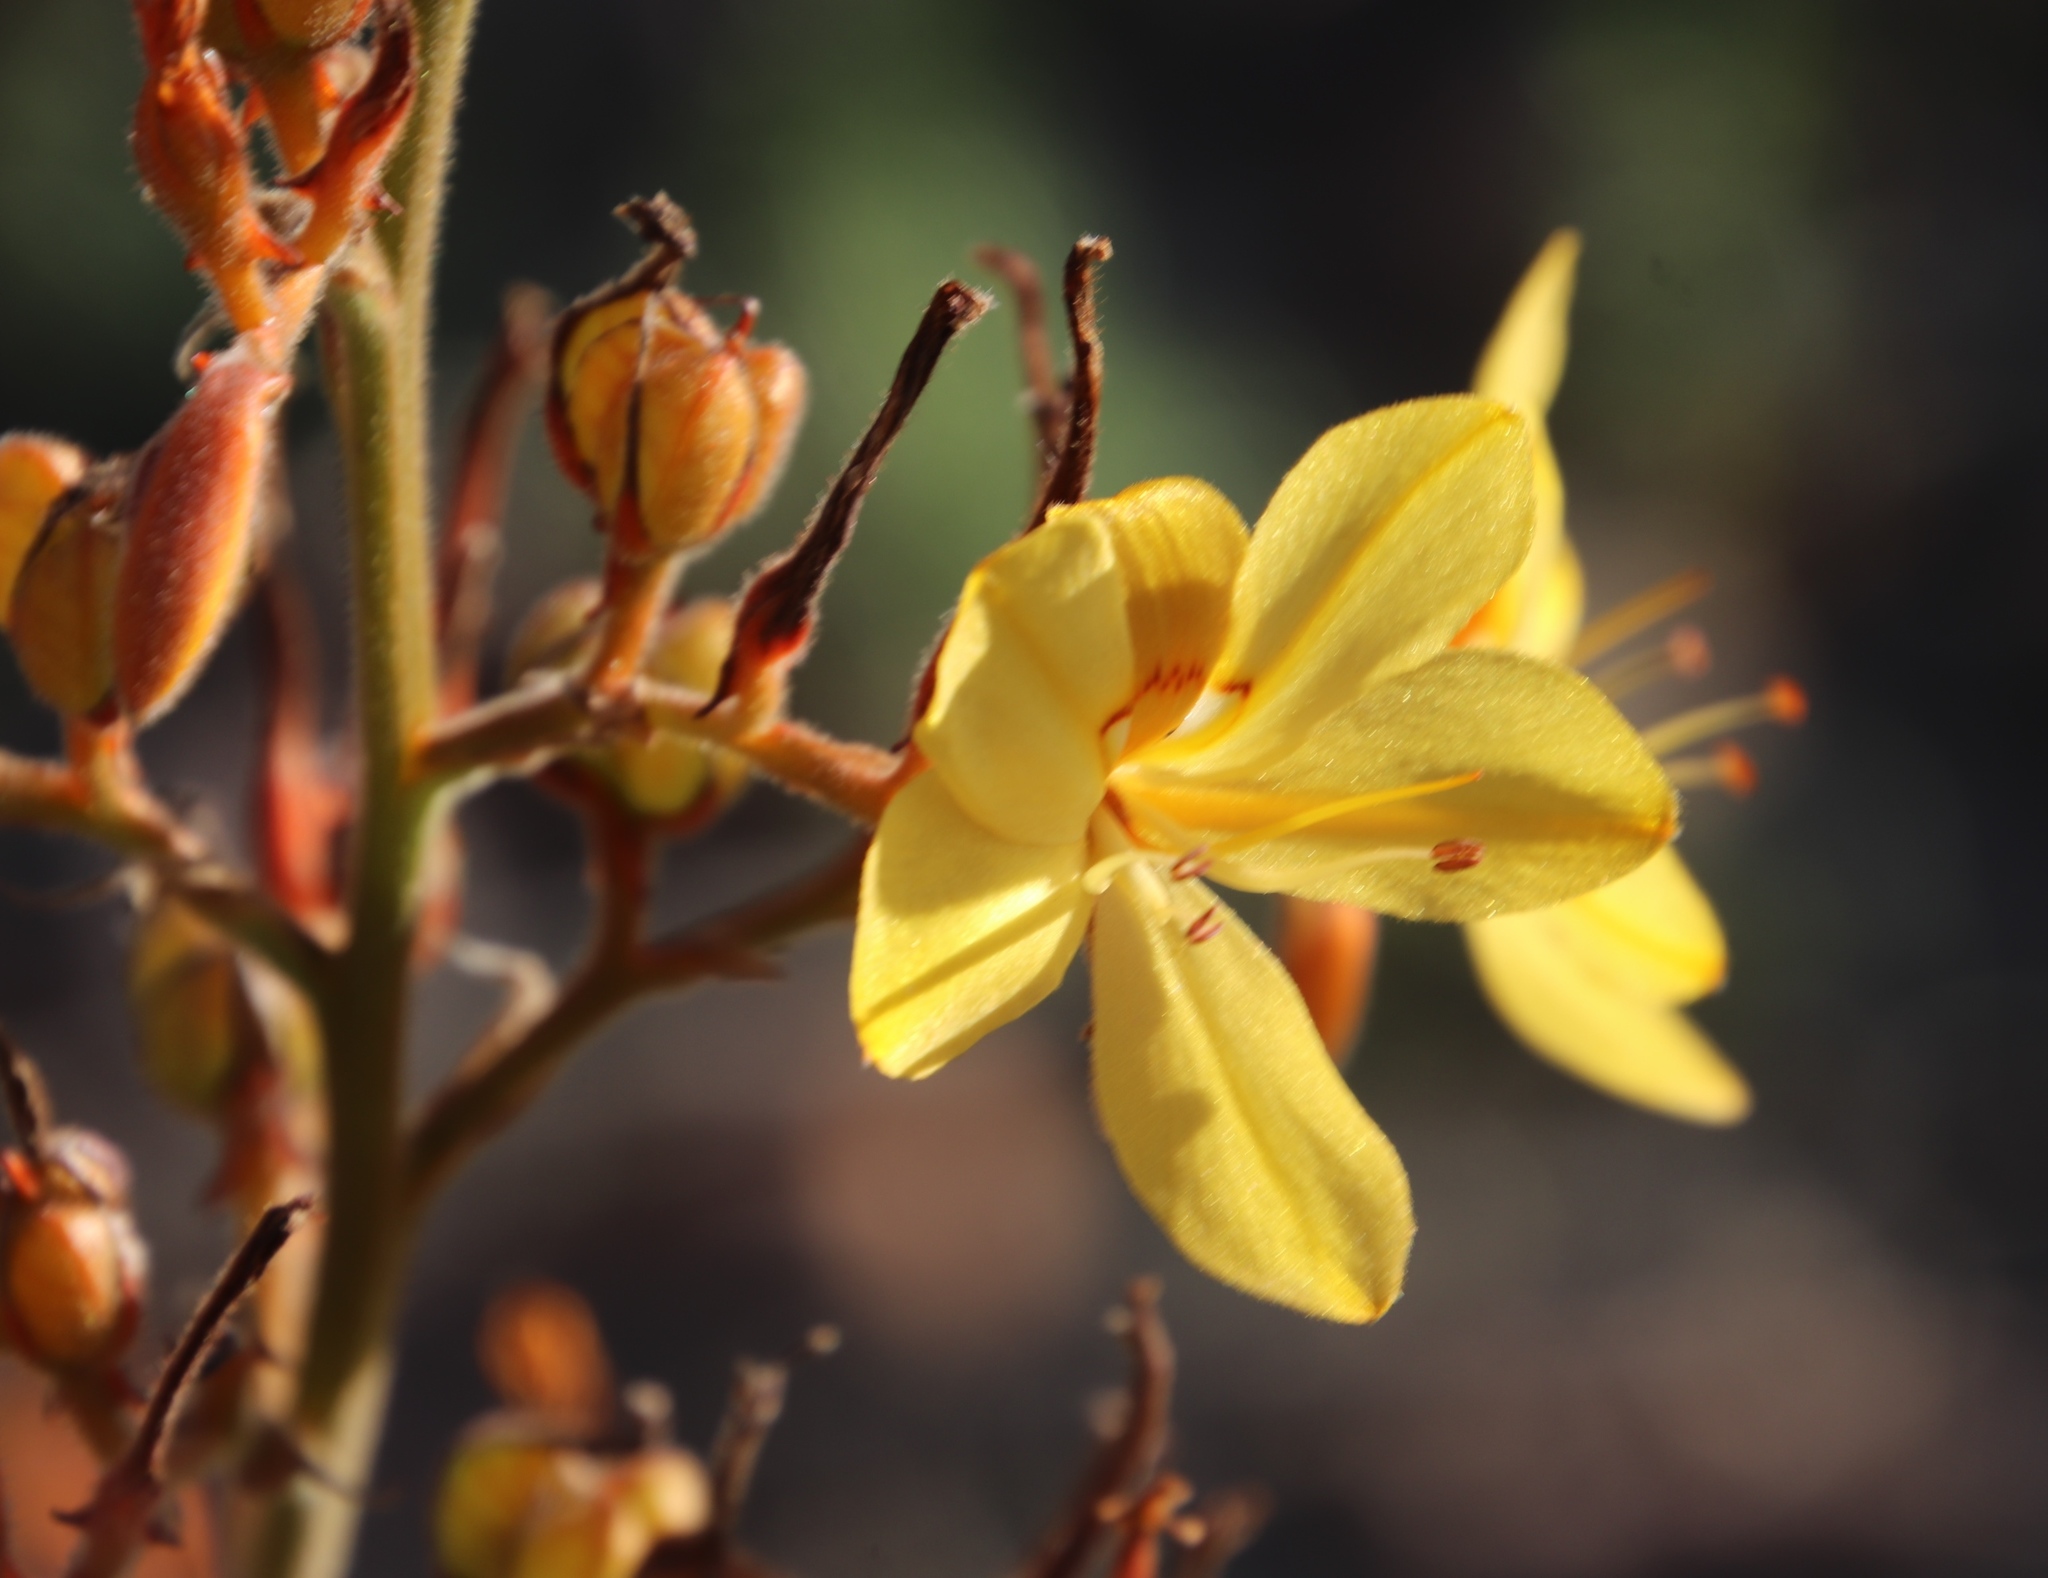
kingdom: Plantae
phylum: Tracheophyta
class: Liliopsida
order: Commelinales
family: Haemodoraceae
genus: Wachendorfia
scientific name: Wachendorfia paniculata
